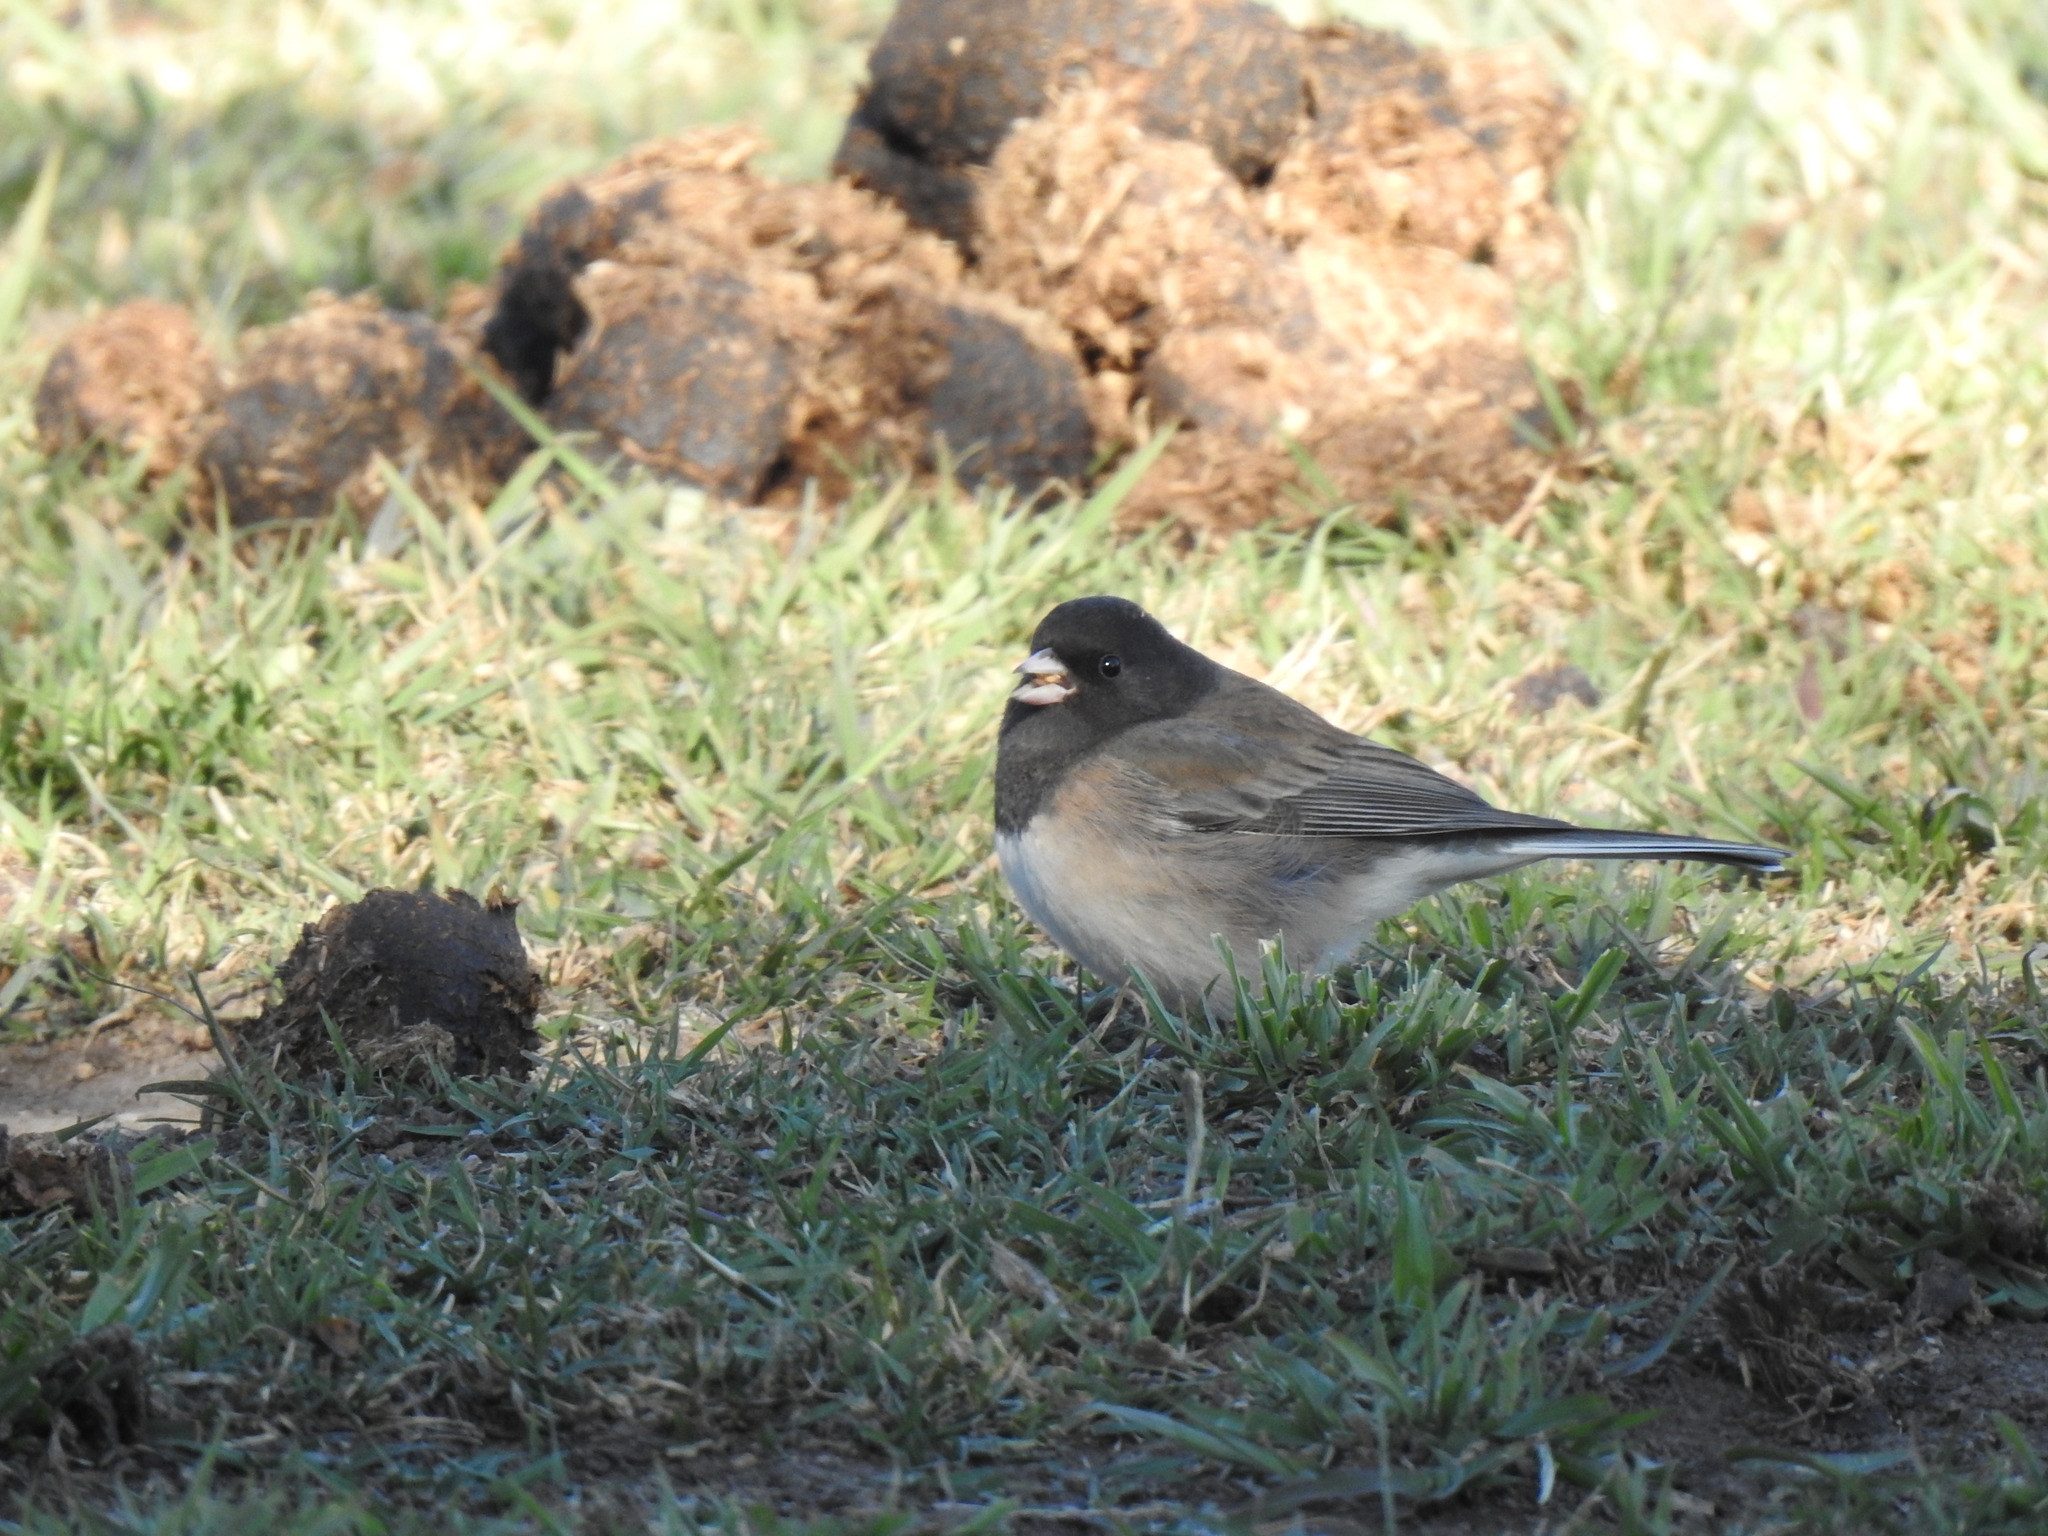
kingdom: Animalia
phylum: Chordata
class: Aves
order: Passeriformes
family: Passerellidae
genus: Junco
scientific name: Junco hyemalis
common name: Dark-eyed junco
